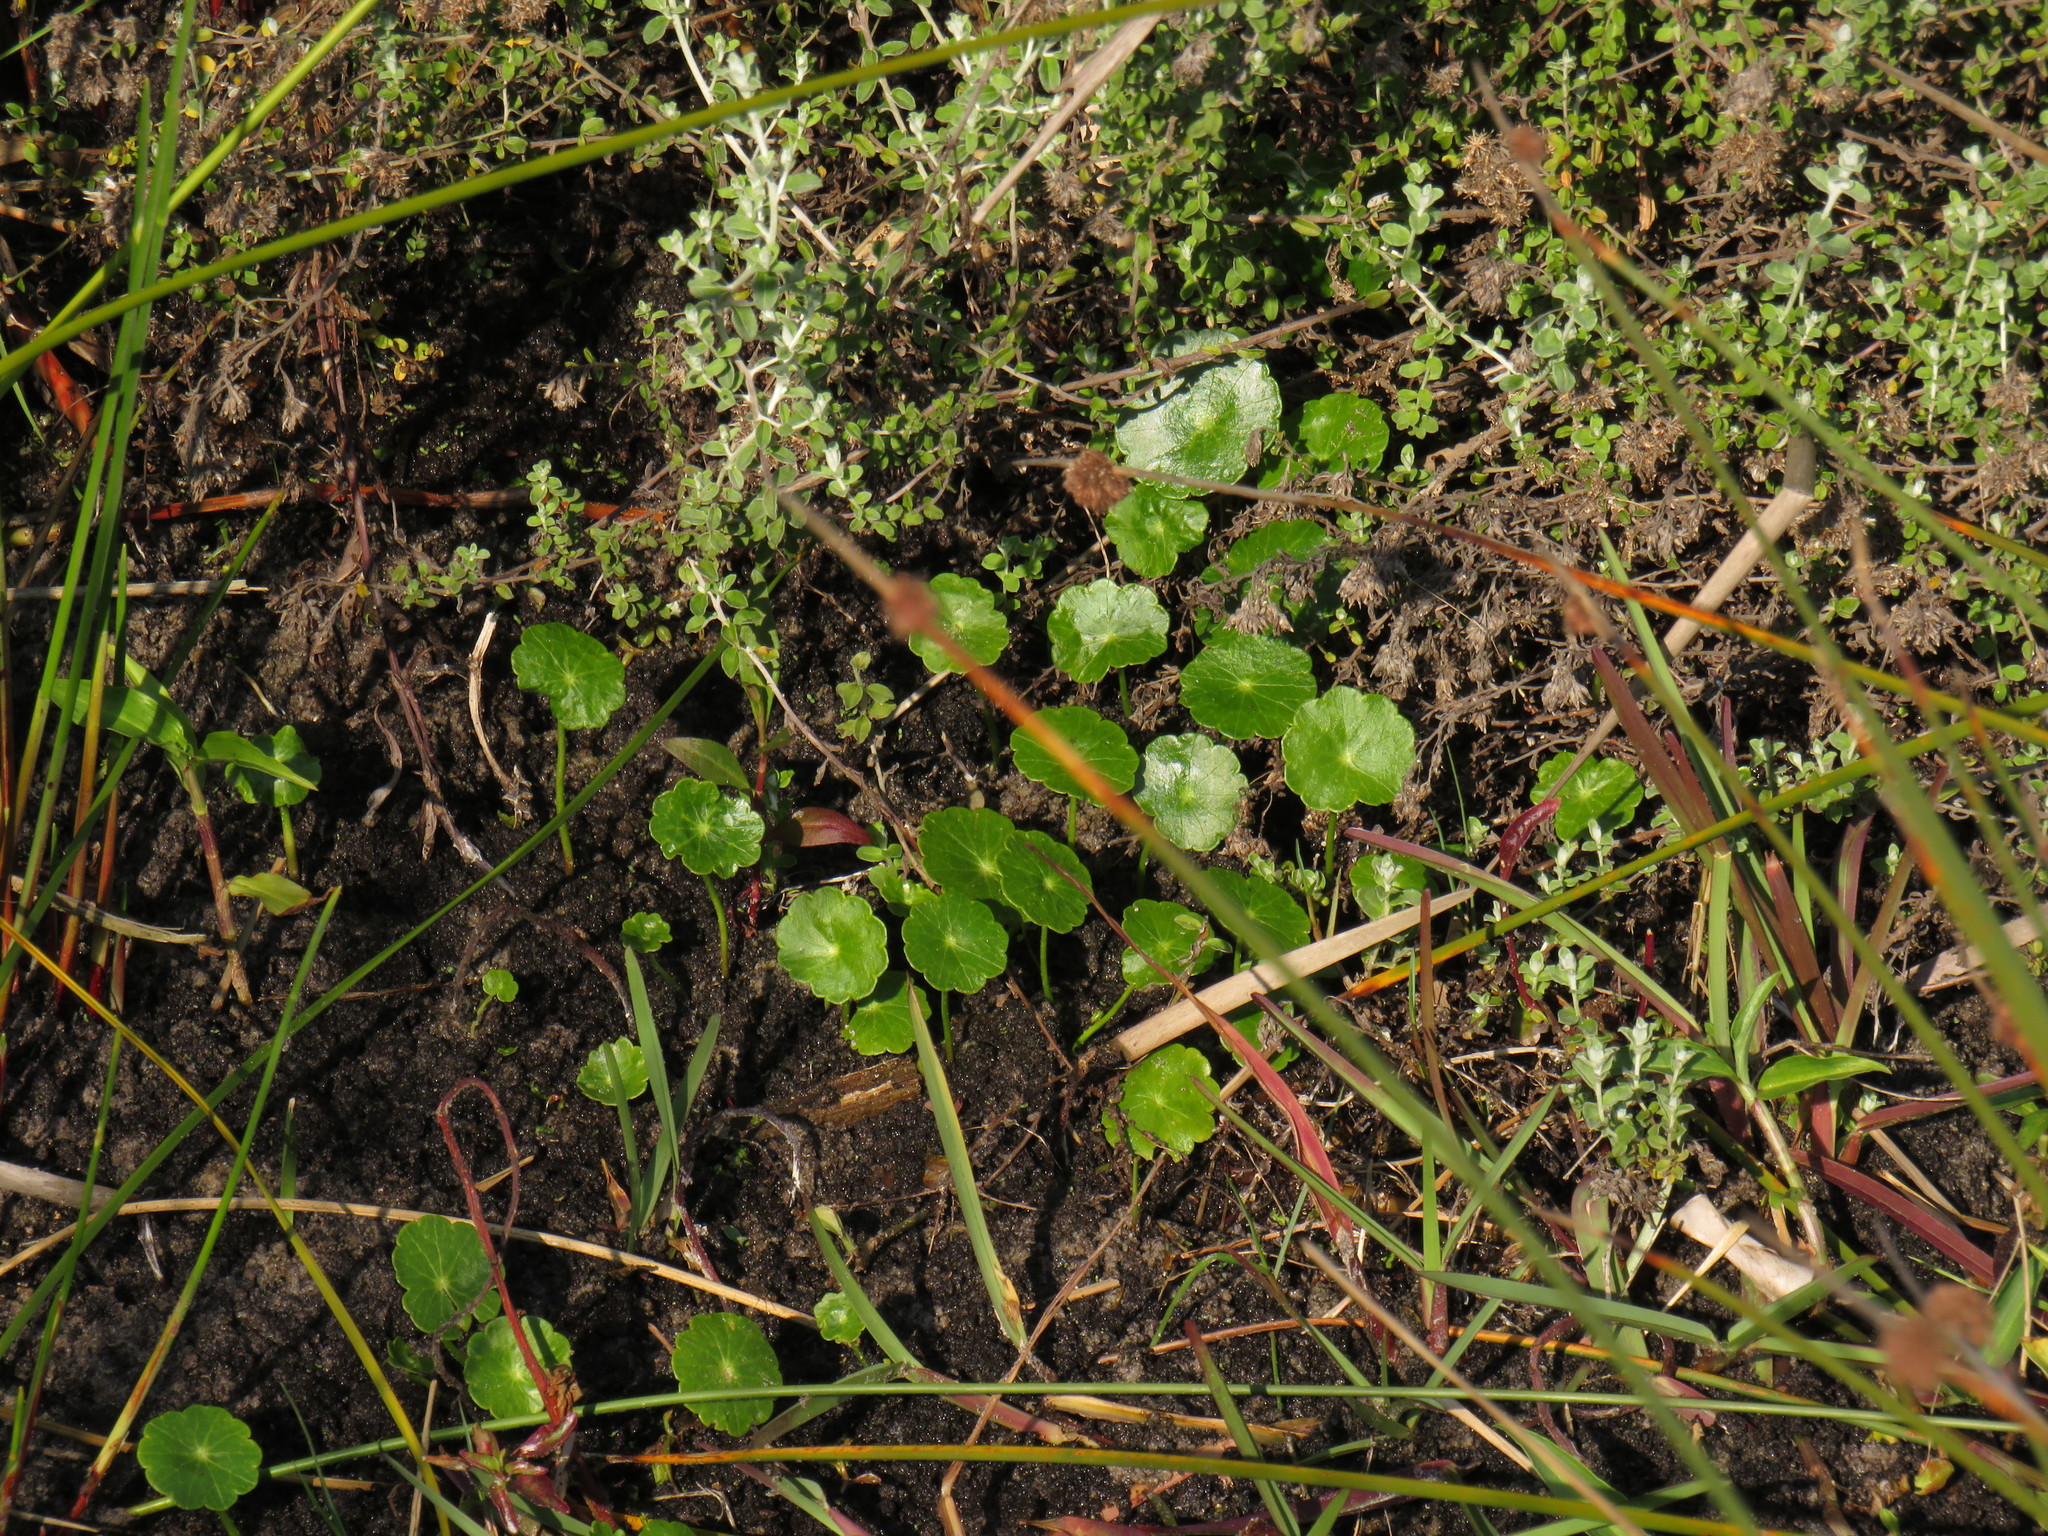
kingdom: Plantae
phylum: Tracheophyta
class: Magnoliopsida
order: Apiales
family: Araliaceae
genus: Hydrocotyle
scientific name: Hydrocotyle verticillata
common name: Whorled marshpennywort
